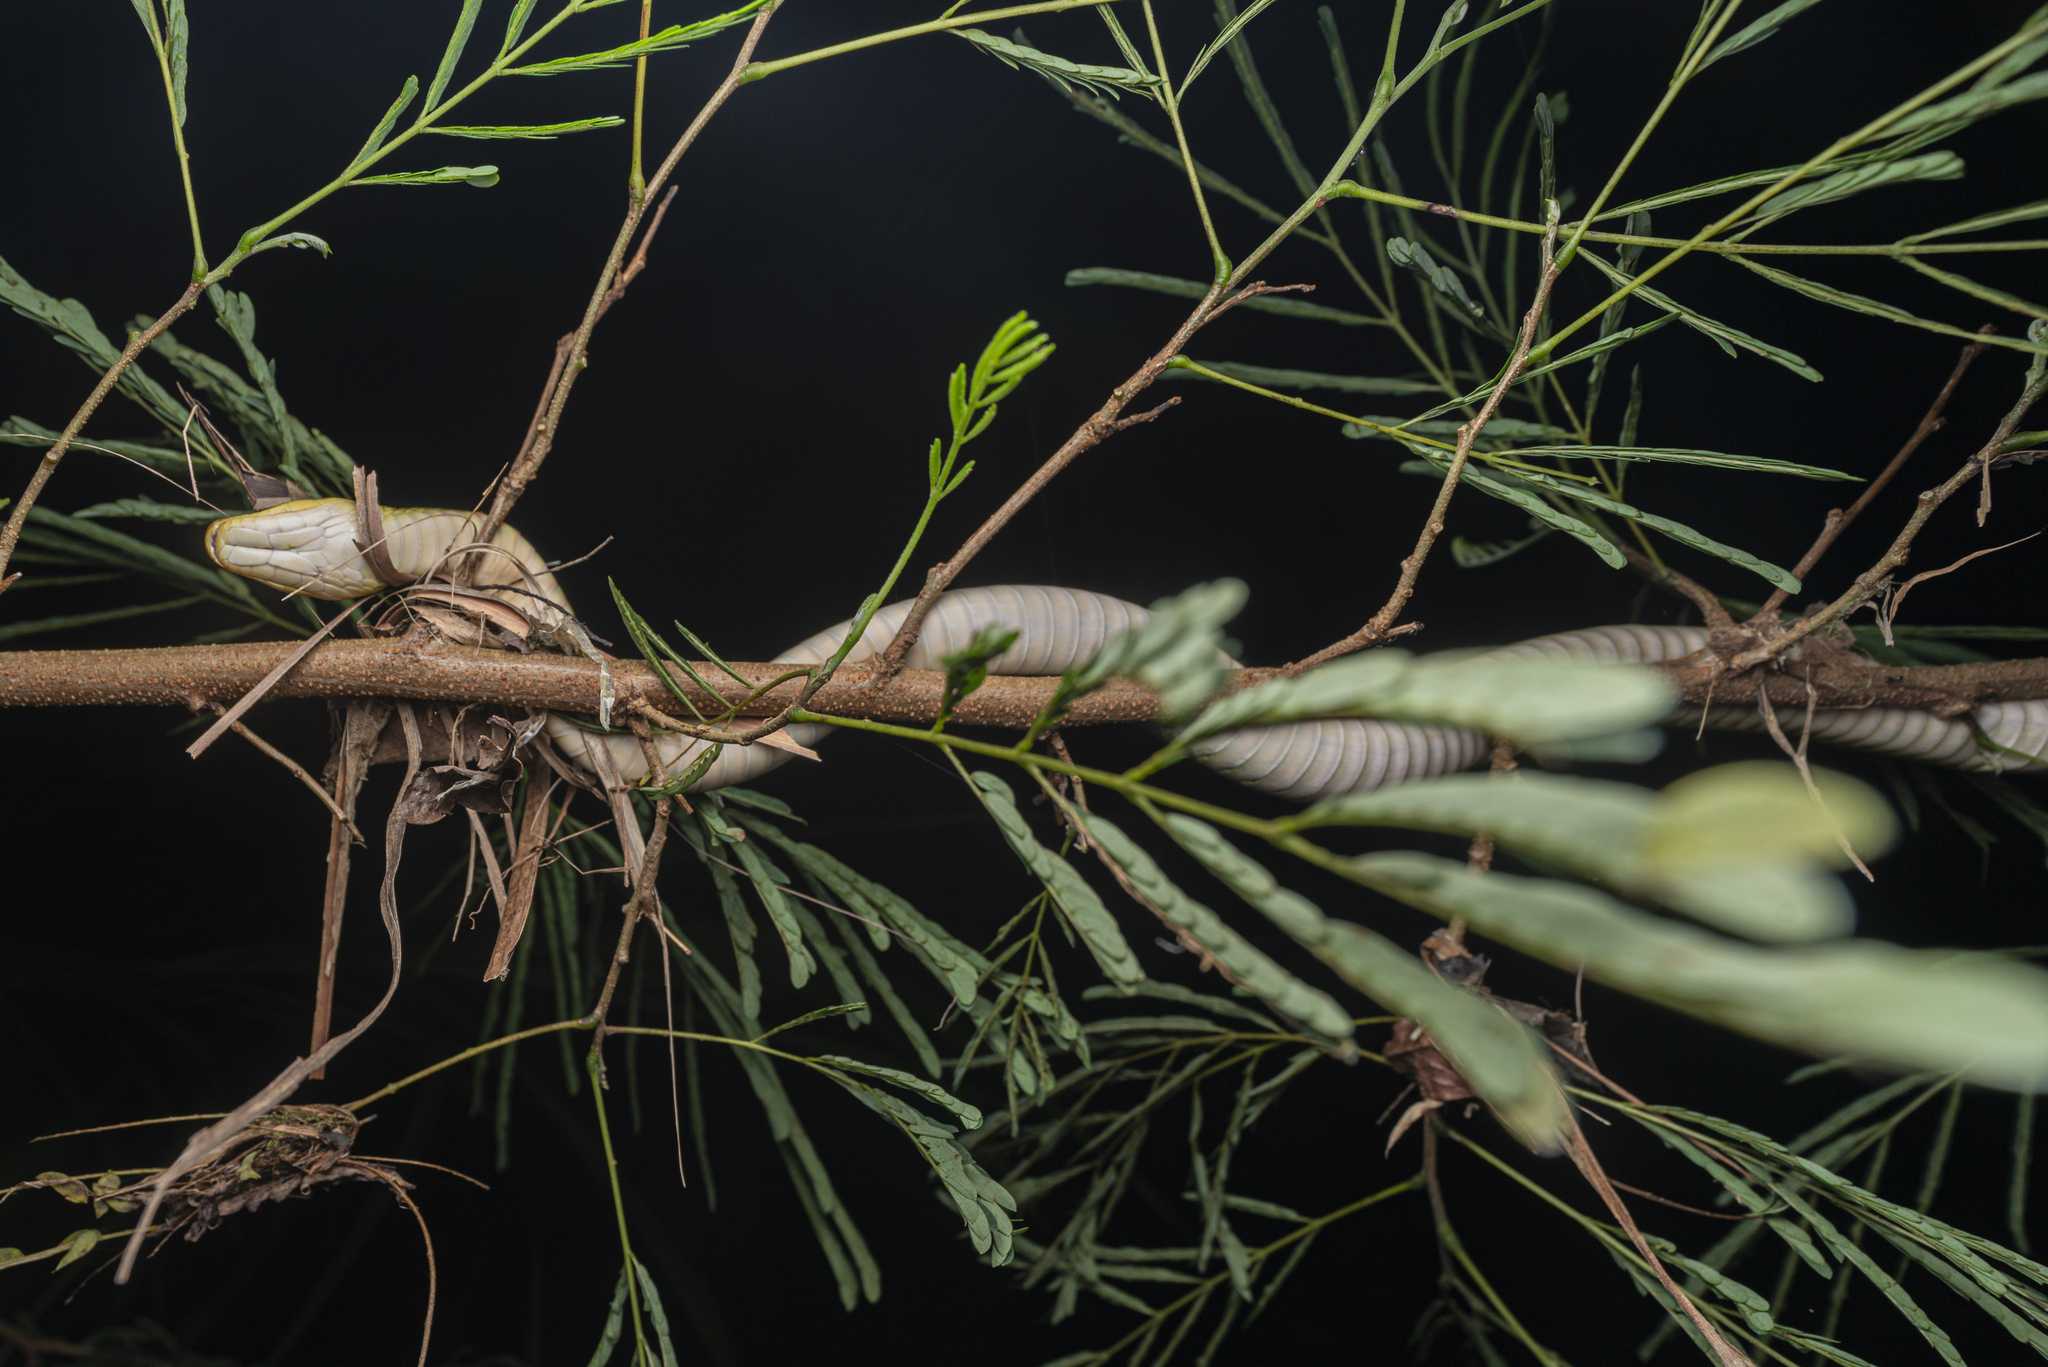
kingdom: Animalia
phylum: Chordata
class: Squamata
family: Colubridae
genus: Rhabdophis
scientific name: Rhabdophis helleri
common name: Heller’s red-necked keelback
